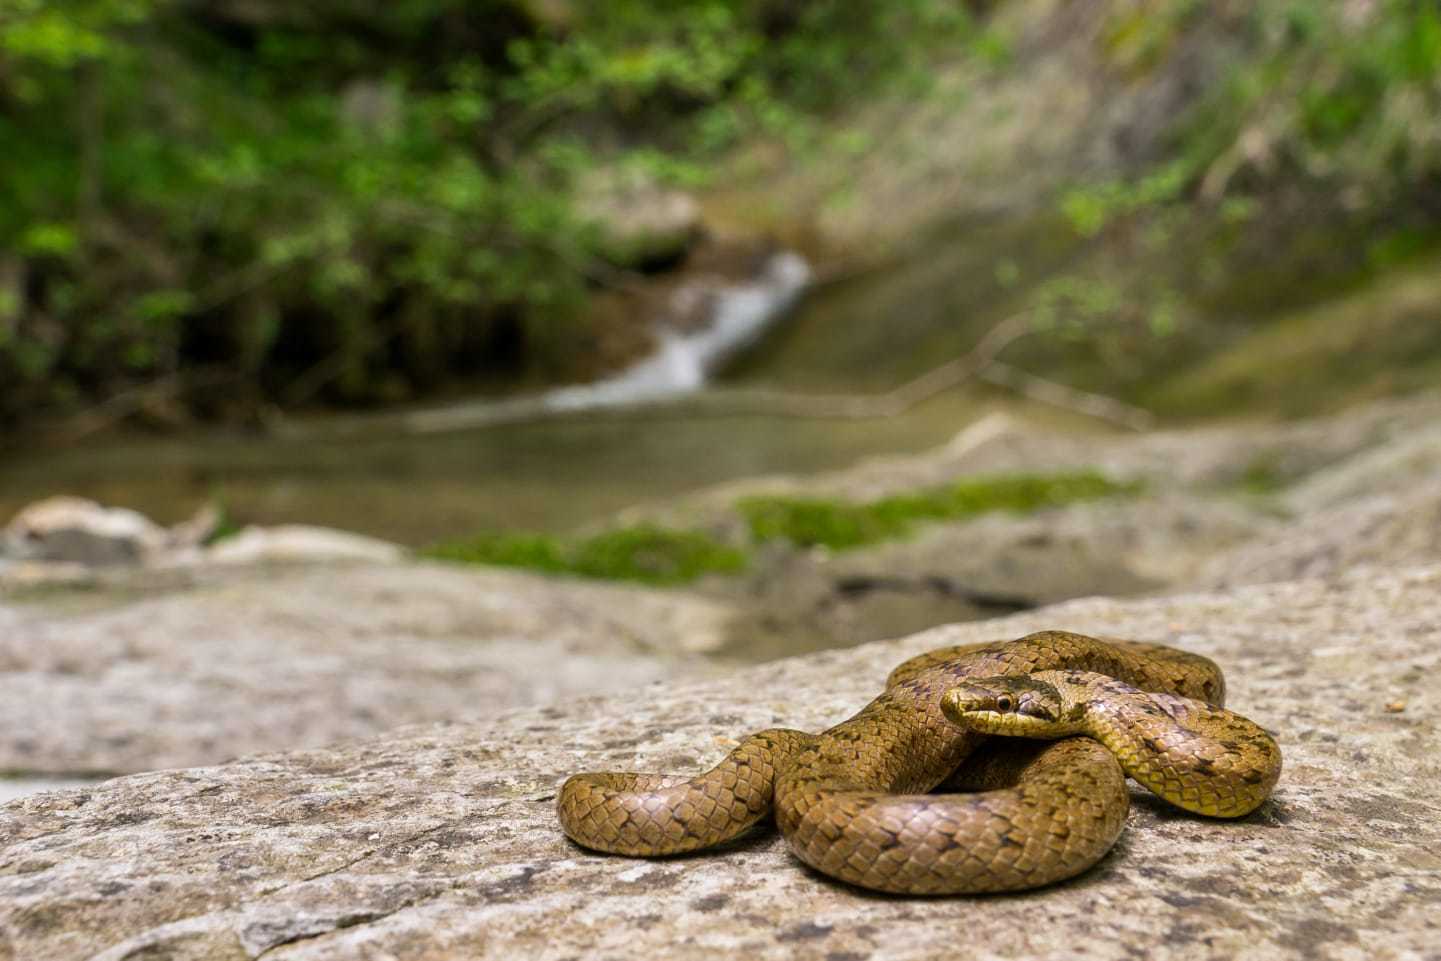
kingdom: Animalia
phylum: Chordata
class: Squamata
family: Colubridae
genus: Coronella
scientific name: Coronella austriaca
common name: Smooth snake
